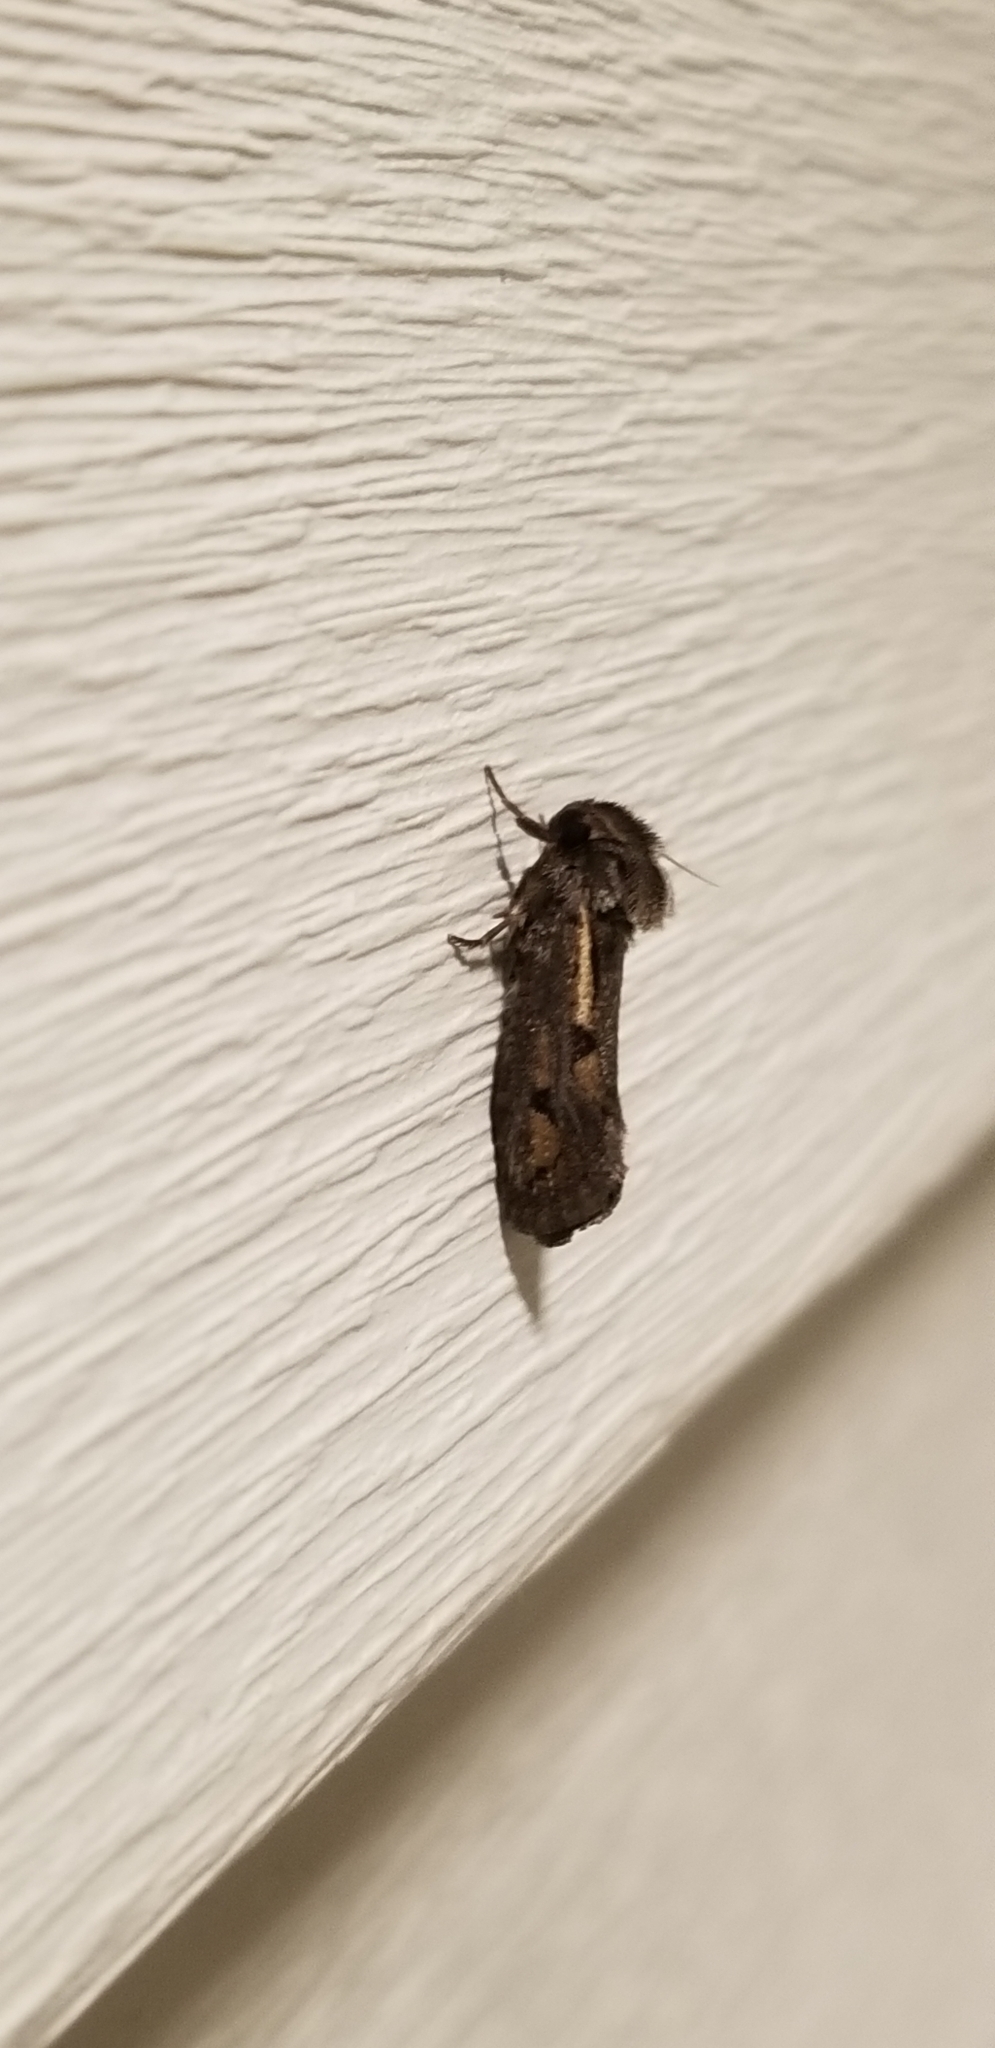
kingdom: Animalia
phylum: Arthropoda
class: Insecta
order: Lepidoptera
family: Tineidae
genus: Acrolophus
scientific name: Acrolophus popeanella
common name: Clemens' grass tubeworm moth
